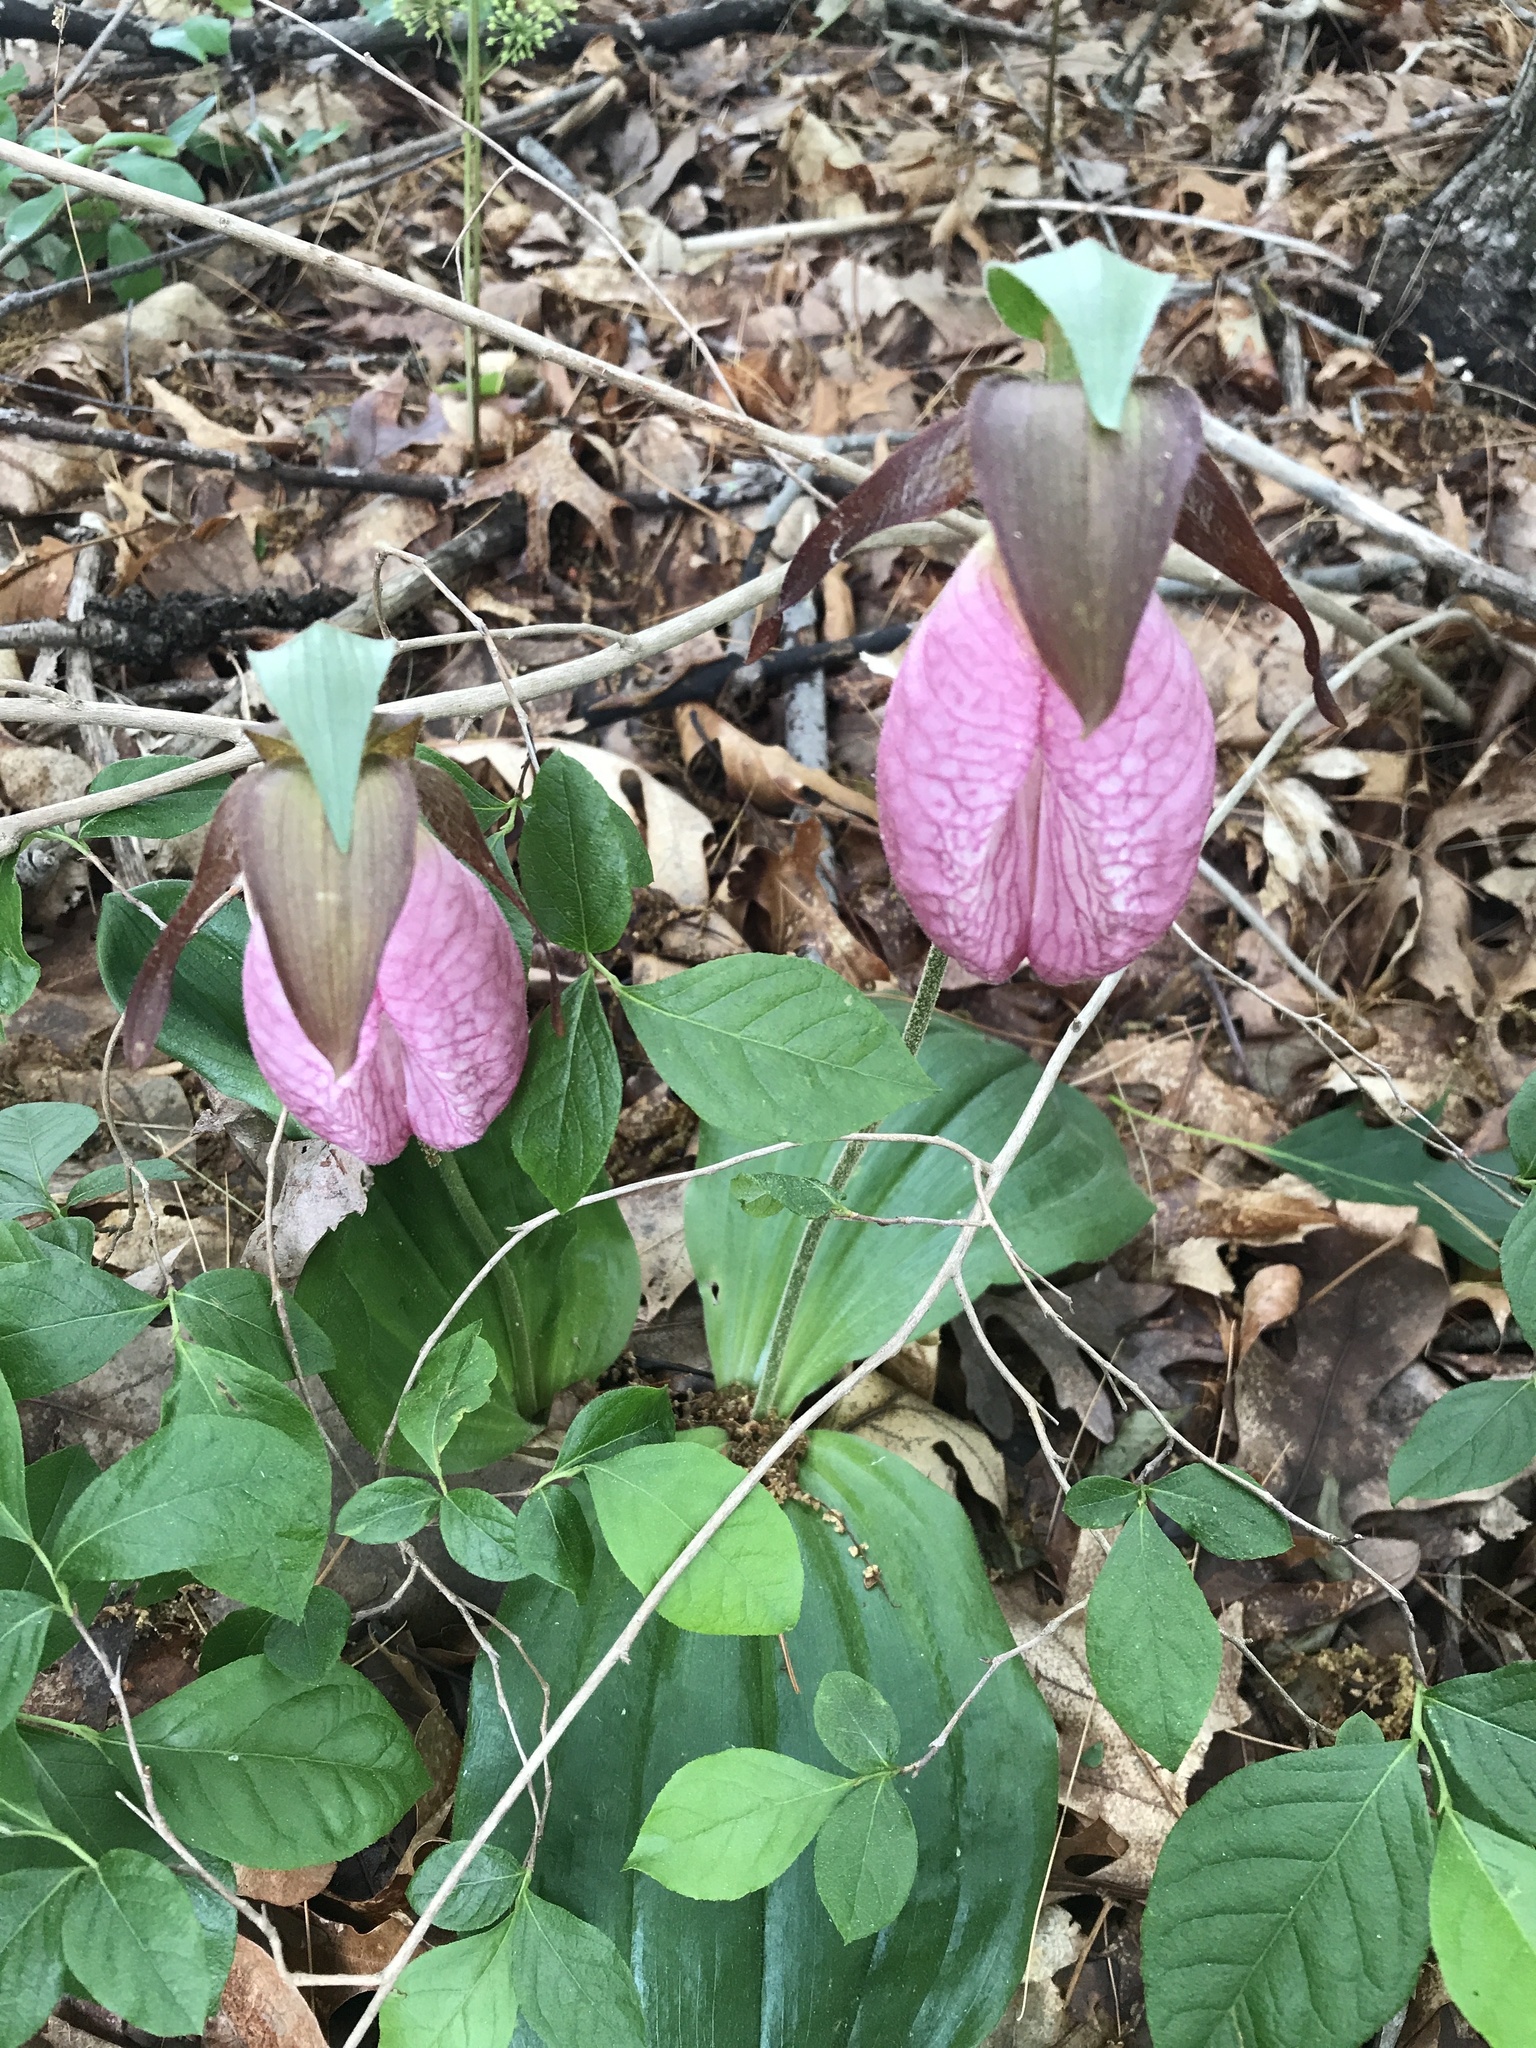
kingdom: Plantae
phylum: Tracheophyta
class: Liliopsida
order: Asparagales
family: Orchidaceae
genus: Cypripedium
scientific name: Cypripedium acaule
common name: Pink lady's-slipper
